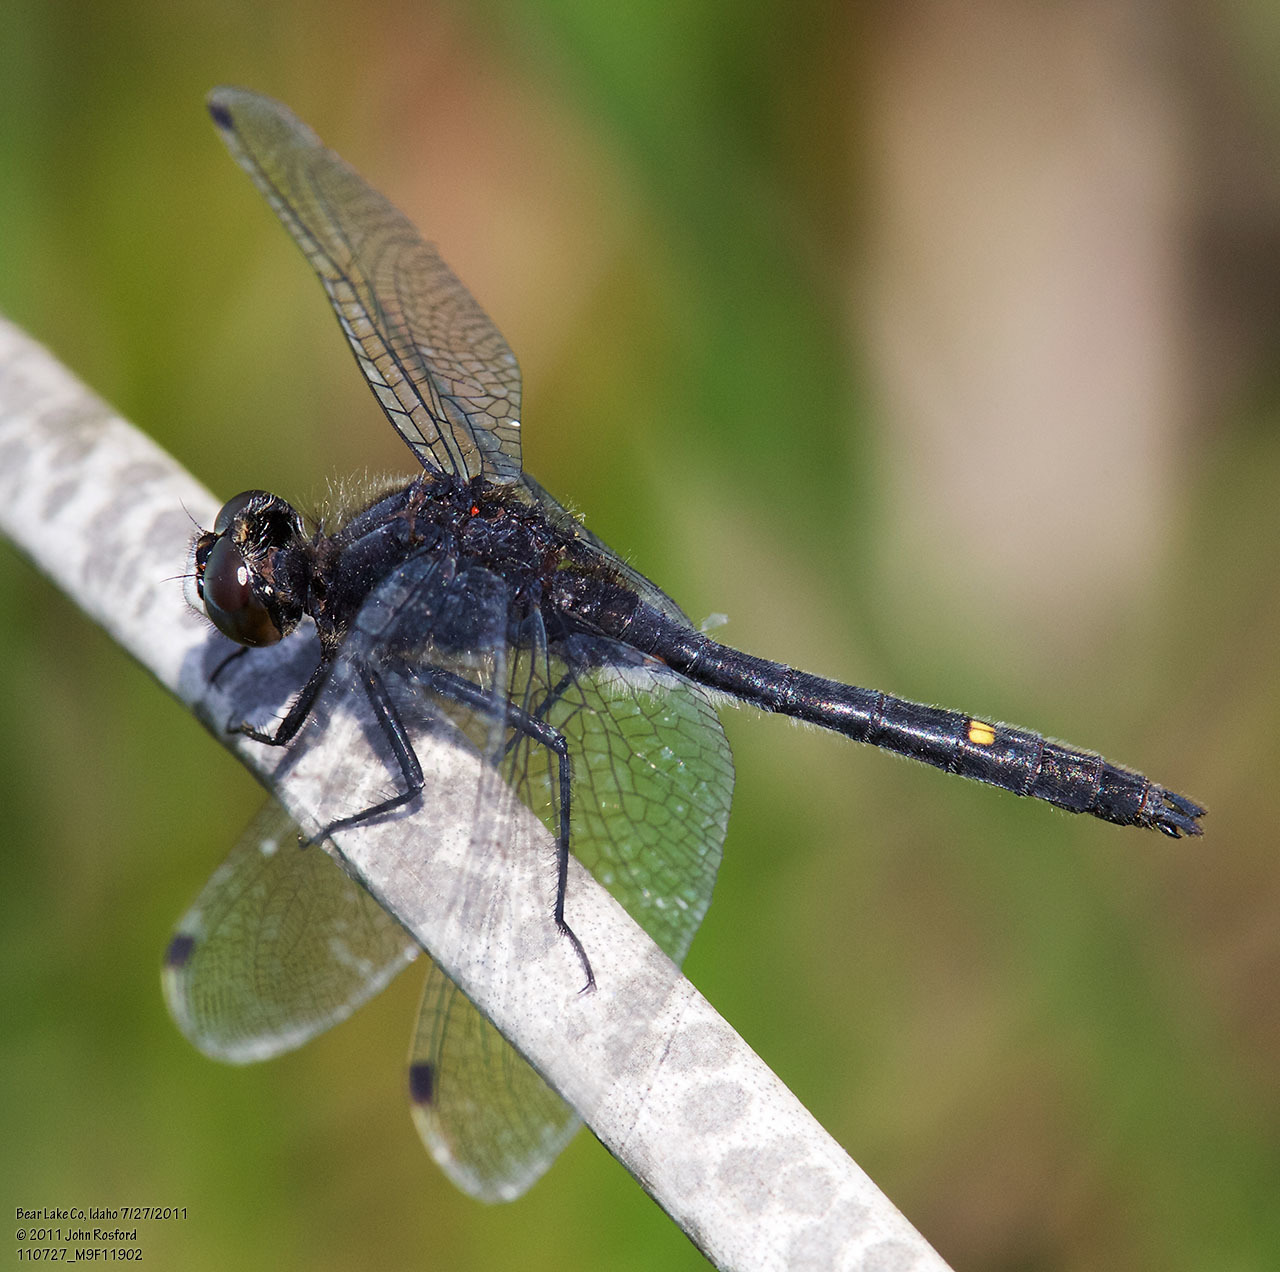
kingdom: Animalia
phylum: Arthropoda
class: Insecta
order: Odonata
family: Libellulidae
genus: Leucorrhinia
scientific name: Leucorrhinia intacta
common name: Dot-tailed whiteface
